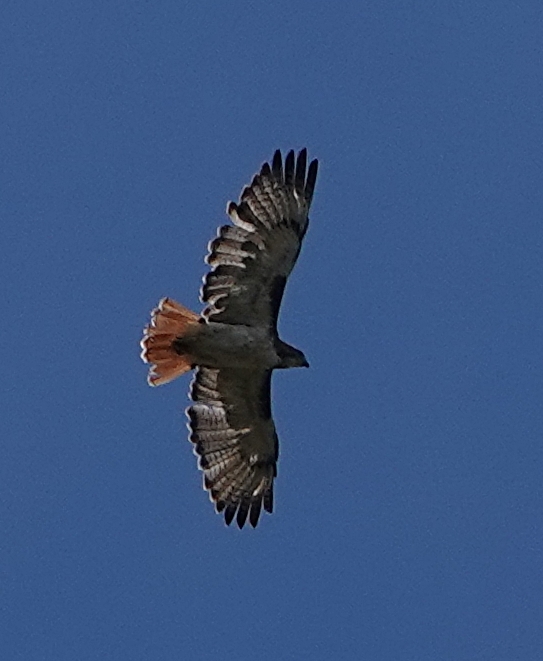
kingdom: Animalia
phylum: Chordata
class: Aves
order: Accipitriformes
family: Accipitridae
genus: Buteo
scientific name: Buteo jamaicensis
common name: Red-tailed hawk
